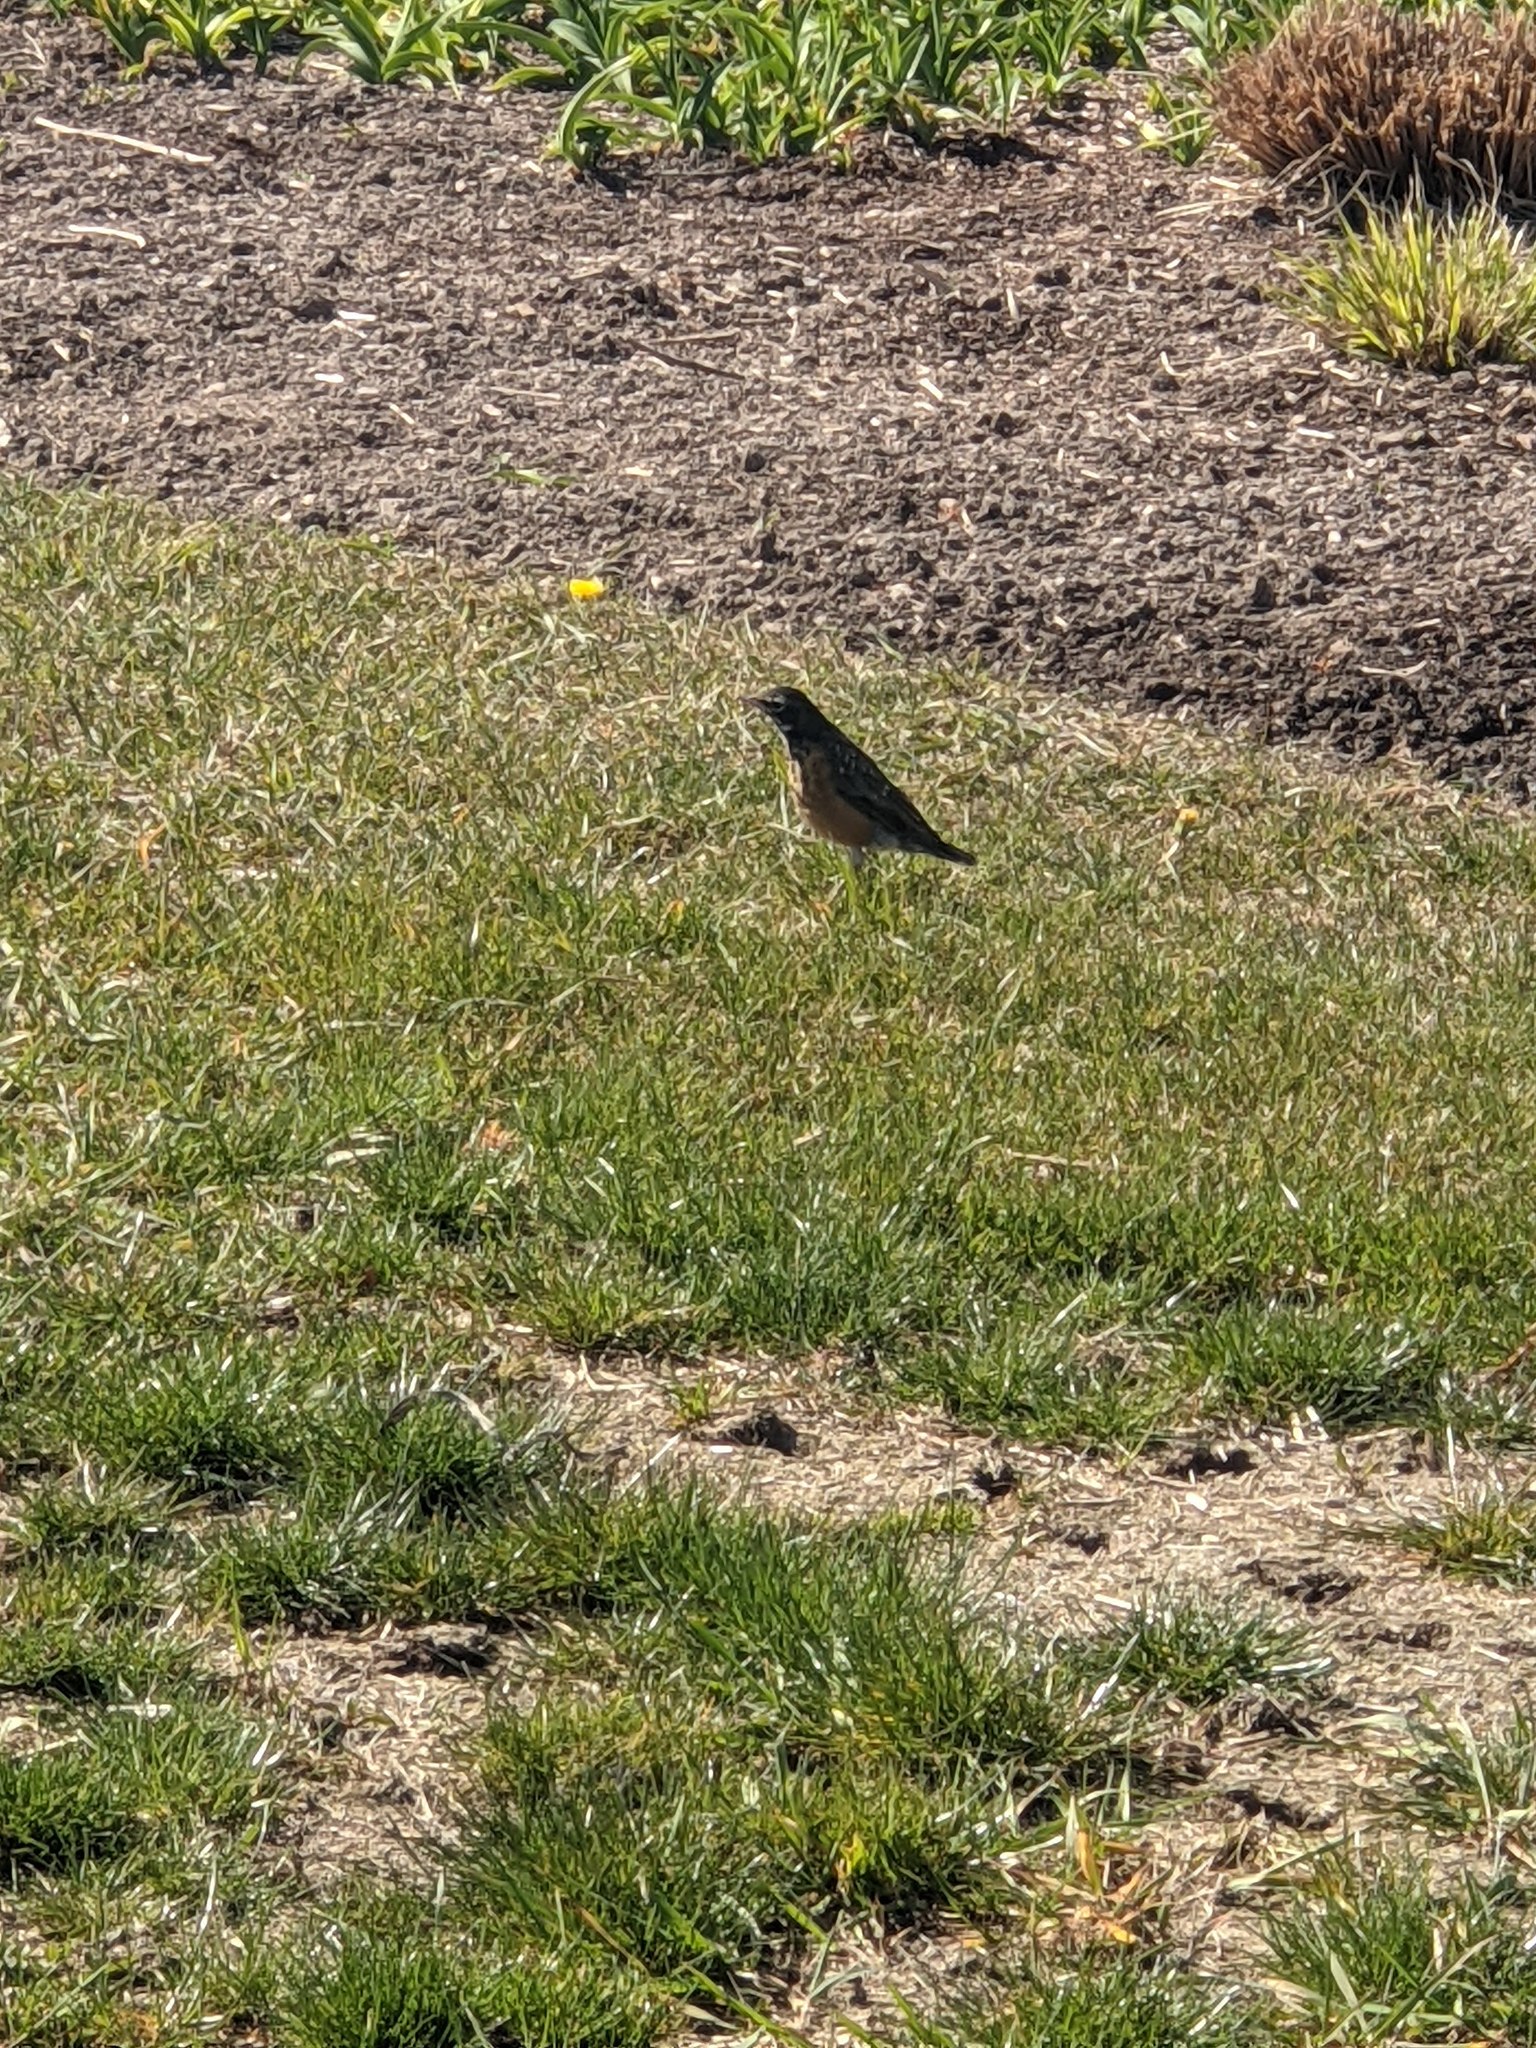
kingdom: Animalia
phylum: Chordata
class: Aves
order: Passeriformes
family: Turdidae
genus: Turdus
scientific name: Turdus migratorius
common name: American robin
